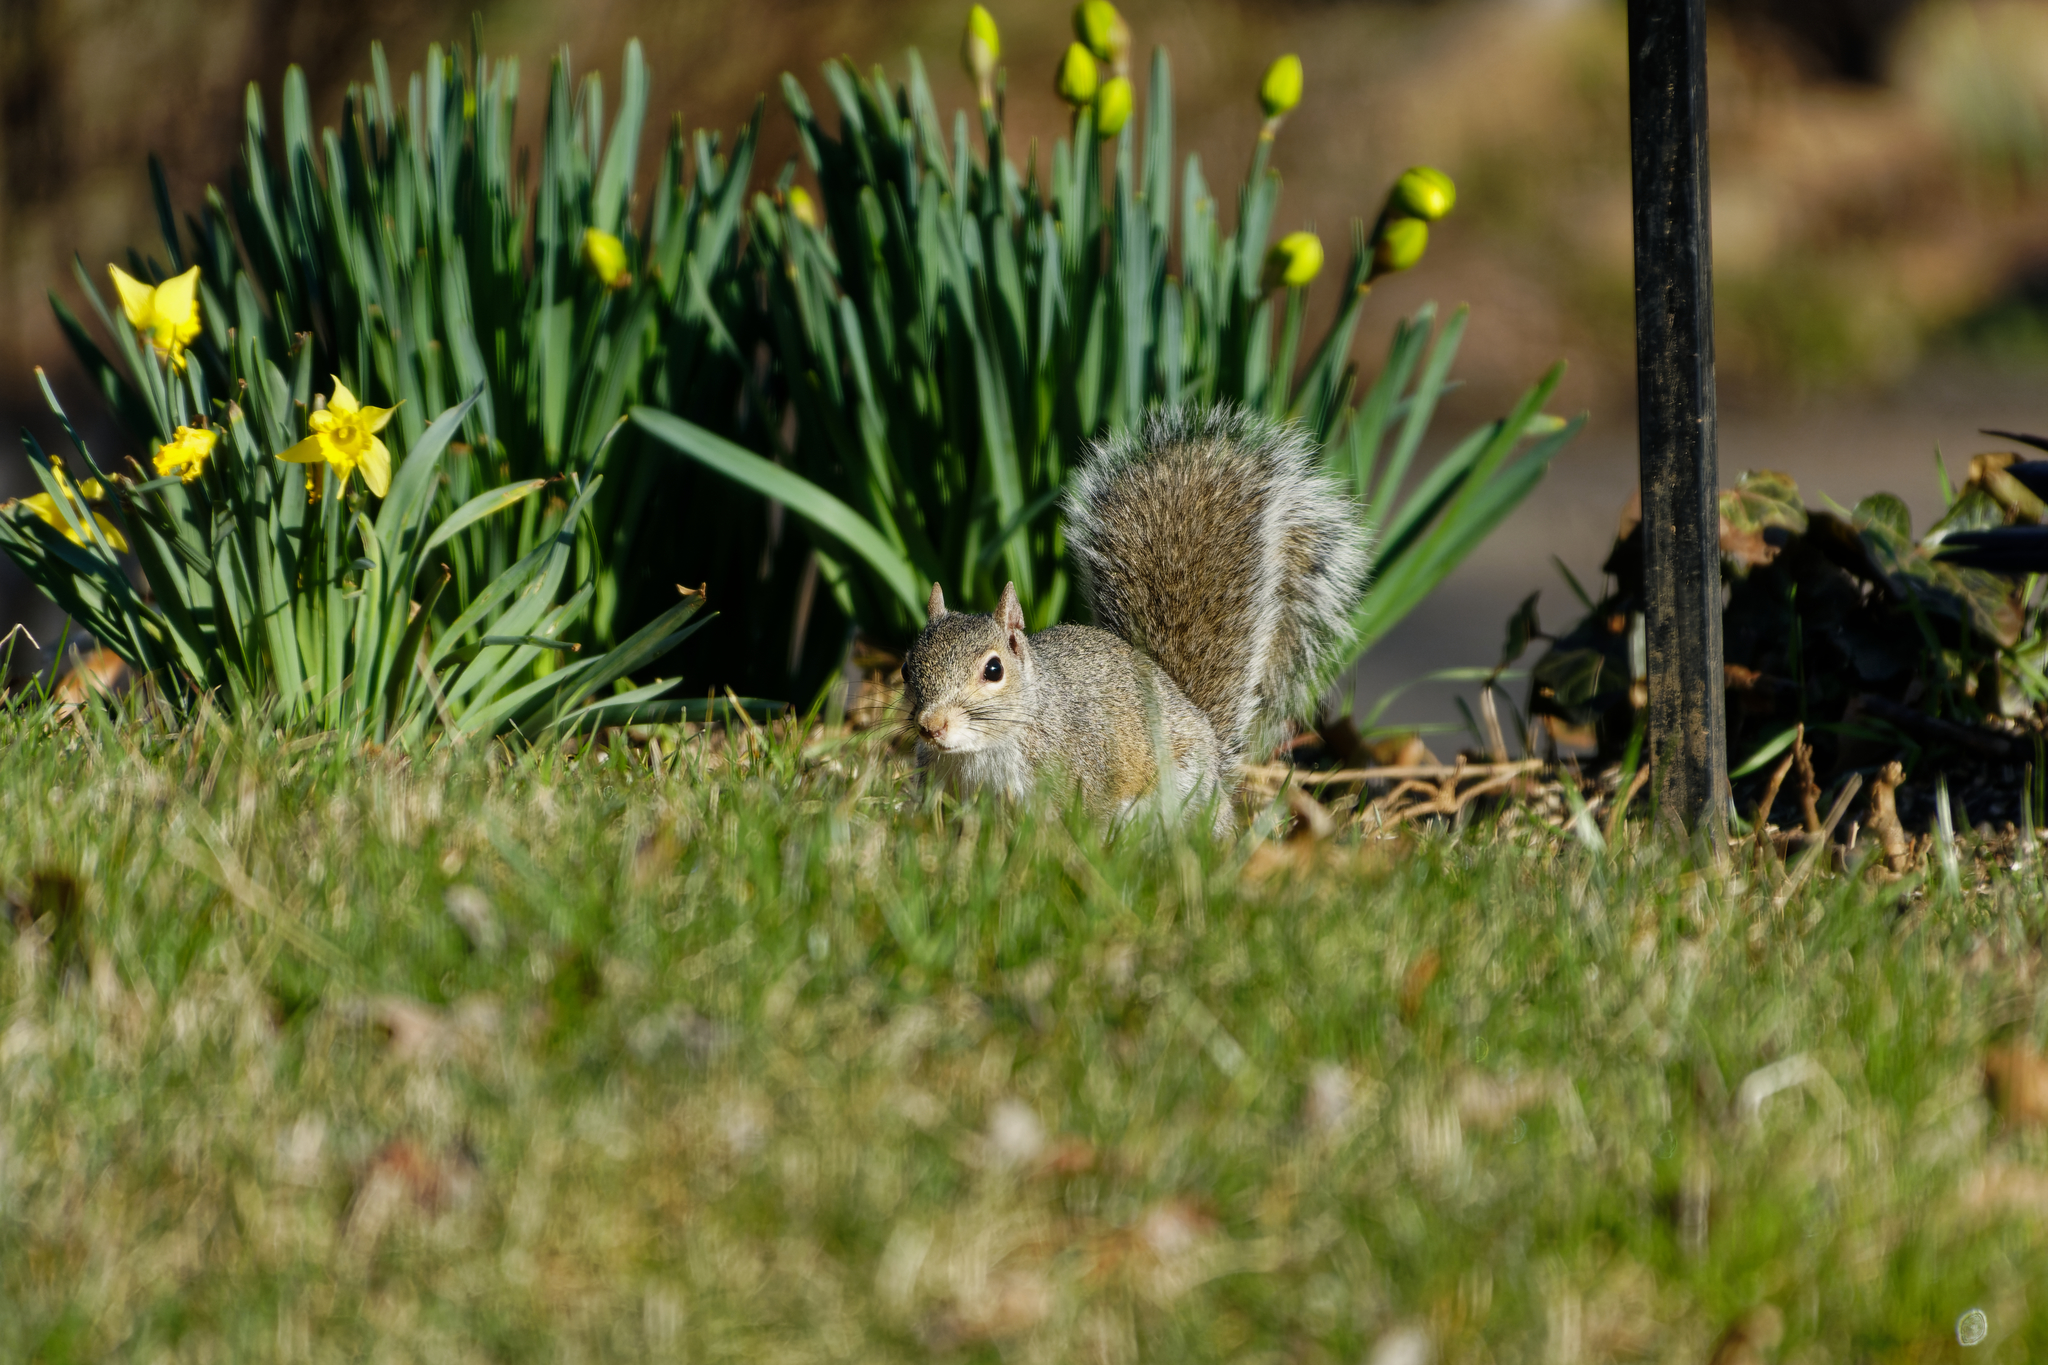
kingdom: Animalia
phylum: Chordata
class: Mammalia
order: Rodentia
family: Sciuridae
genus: Sciurus
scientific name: Sciurus carolinensis
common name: Eastern gray squirrel
